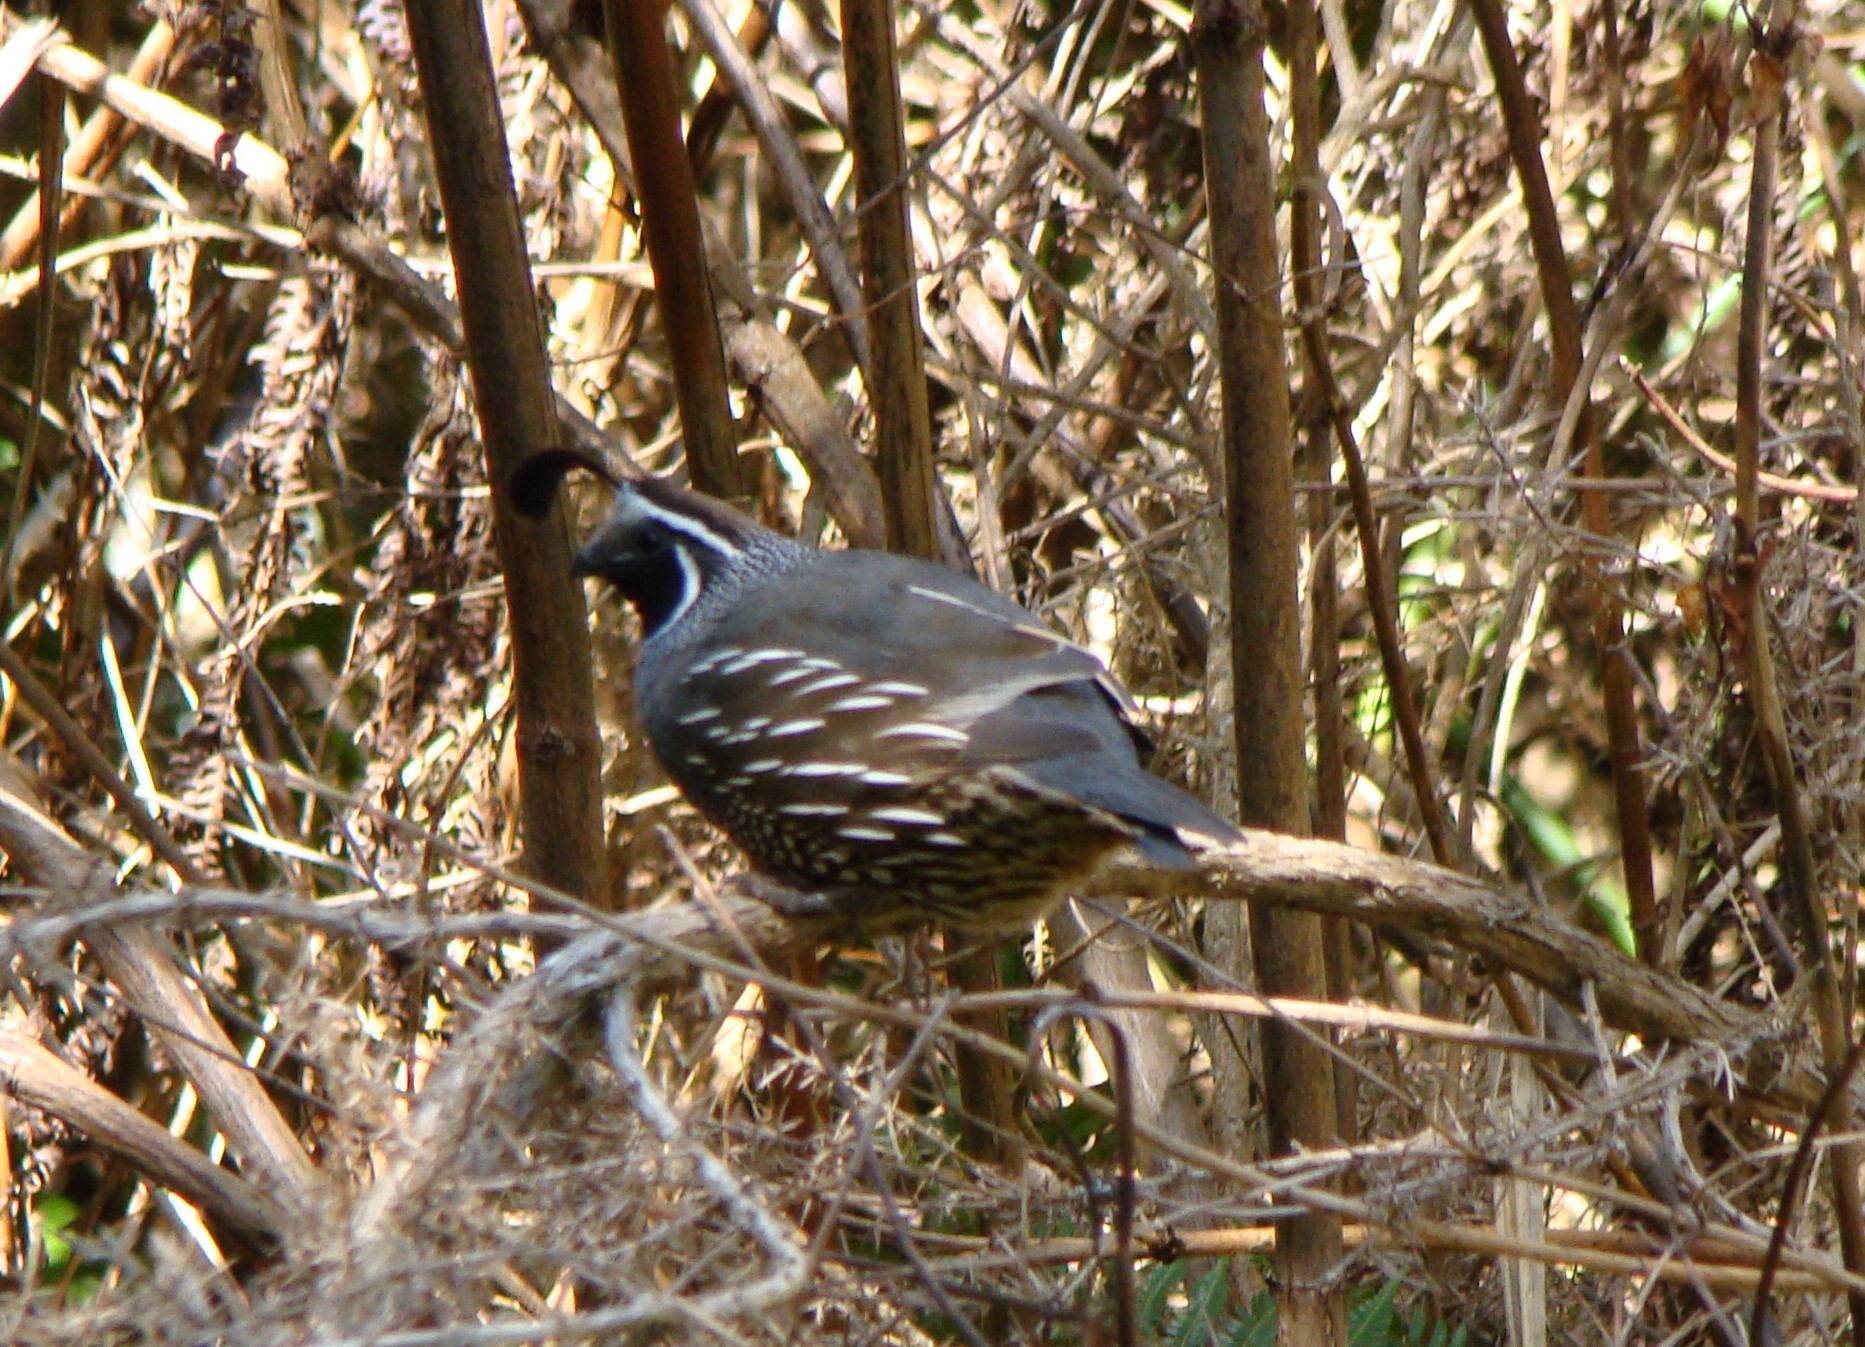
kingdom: Animalia
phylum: Chordata
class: Aves
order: Galliformes
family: Odontophoridae
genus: Callipepla
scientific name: Callipepla californica
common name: California quail
